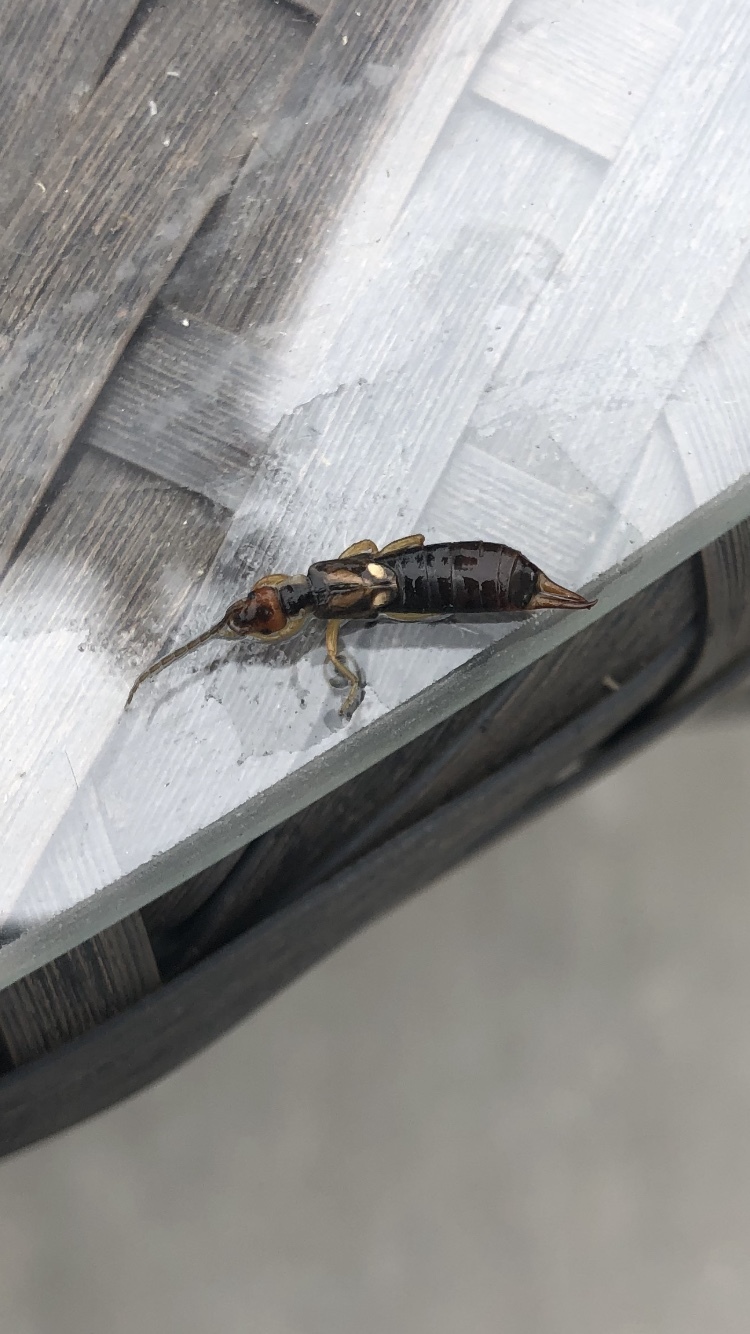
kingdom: Animalia
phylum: Arthropoda
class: Insecta
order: Dermaptera
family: Forficulidae
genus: Forficula
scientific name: Forficula
